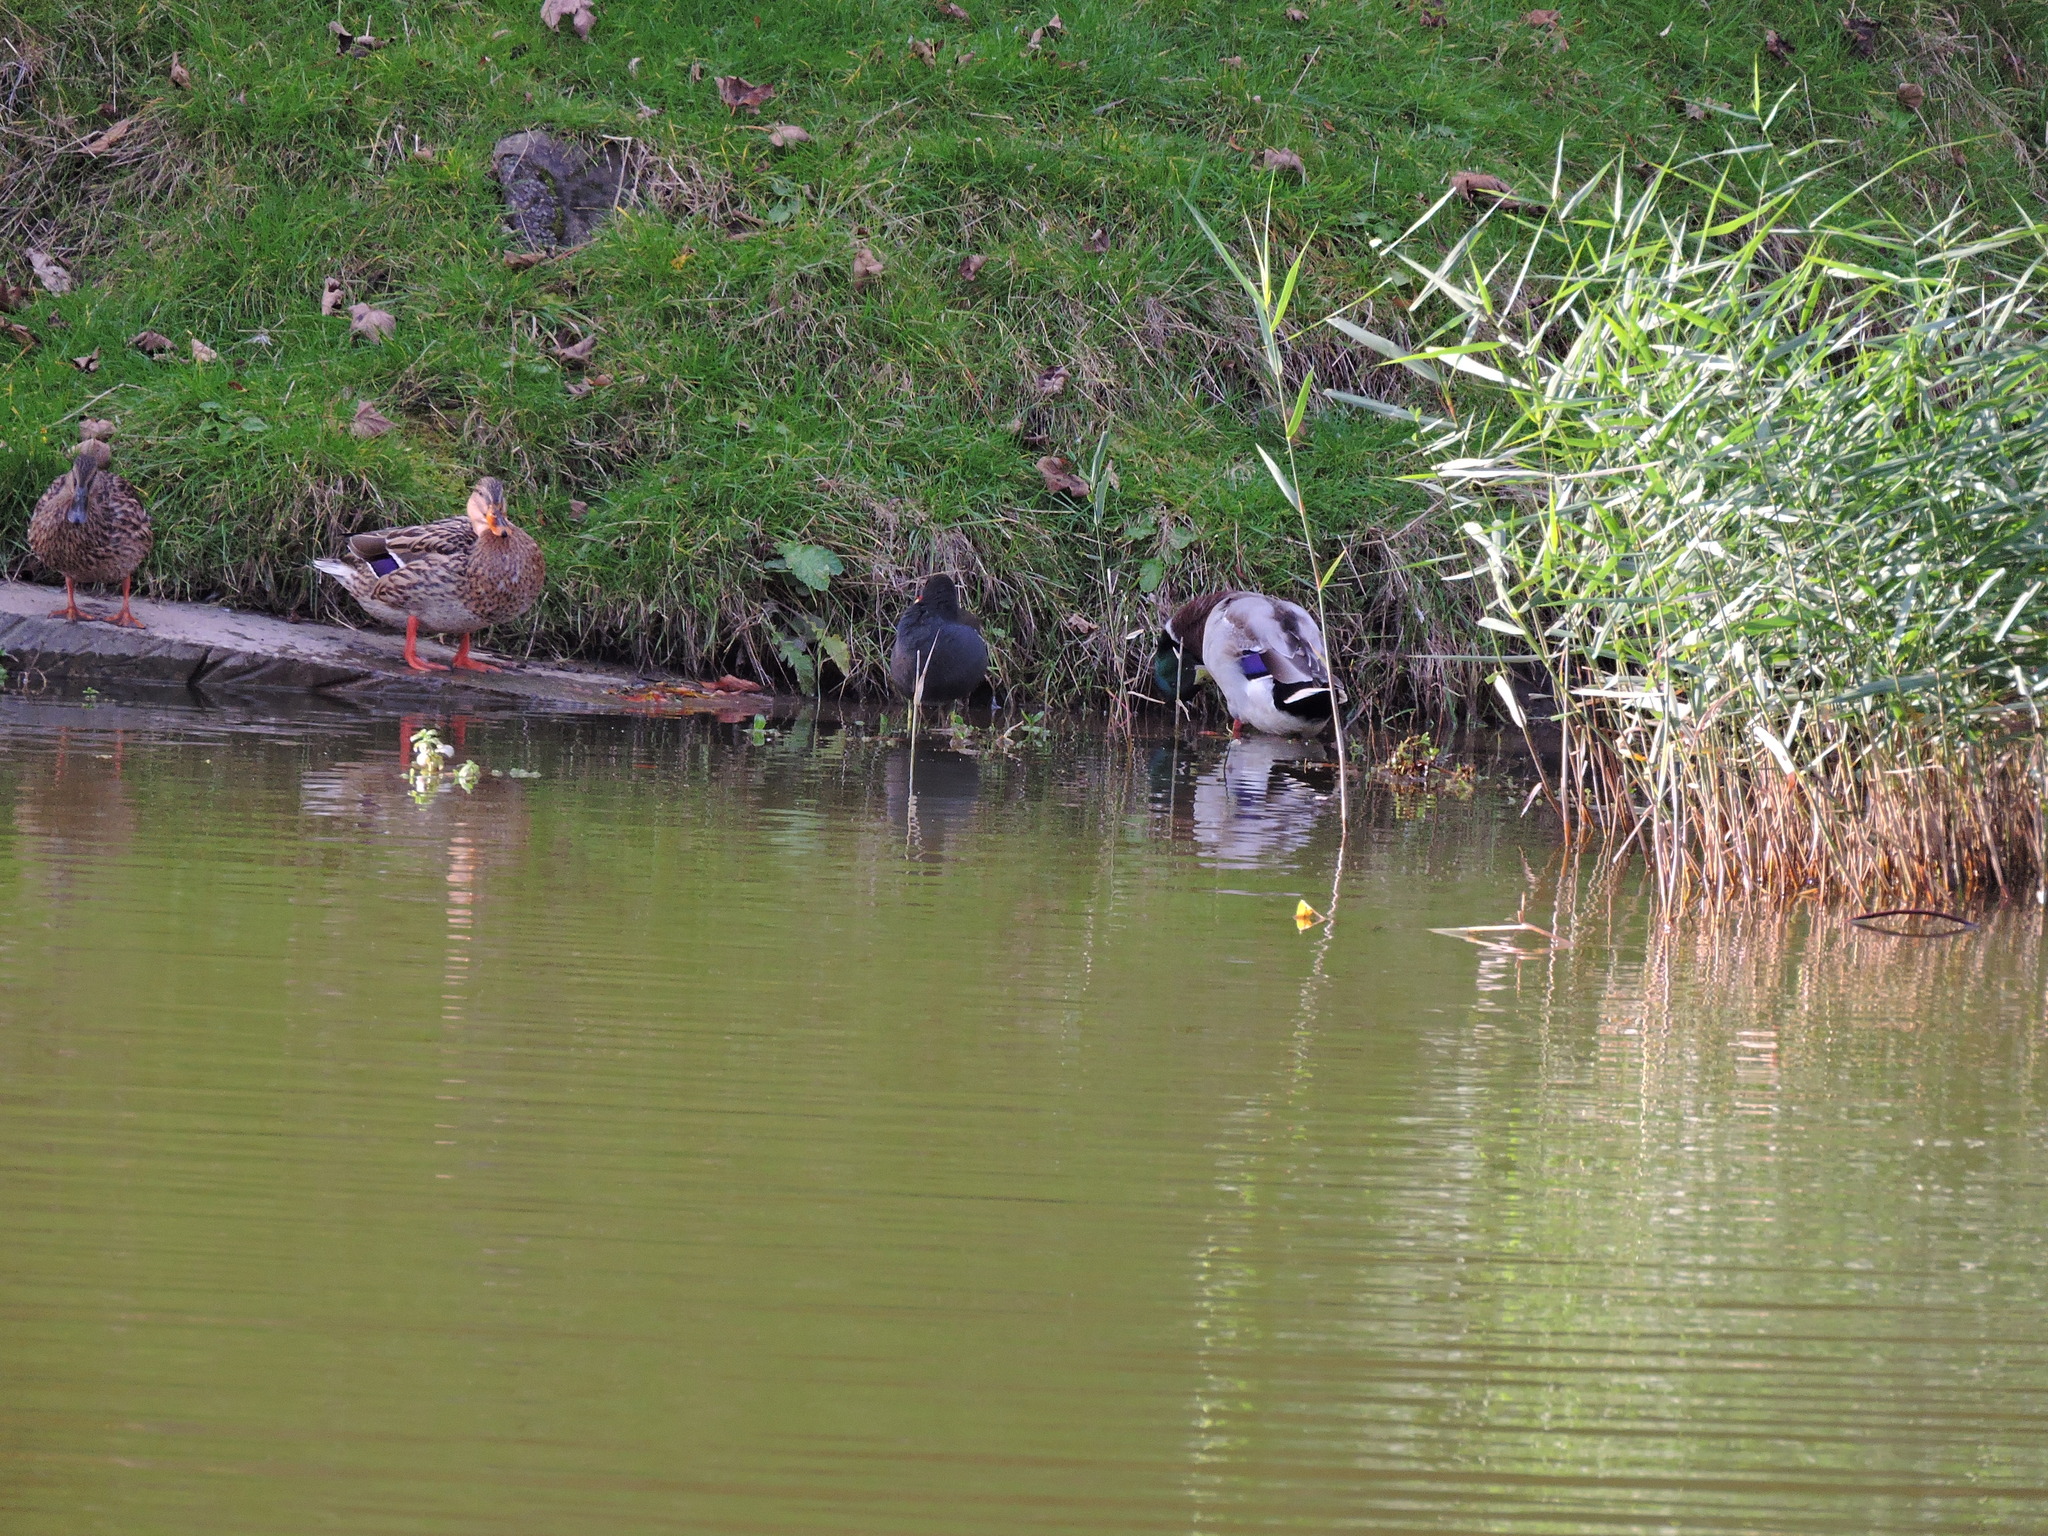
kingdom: Animalia
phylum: Chordata
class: Aves
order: Anseriformes
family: Anatidae
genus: Anas
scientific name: Anas platyrhynchos
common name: Mallard
